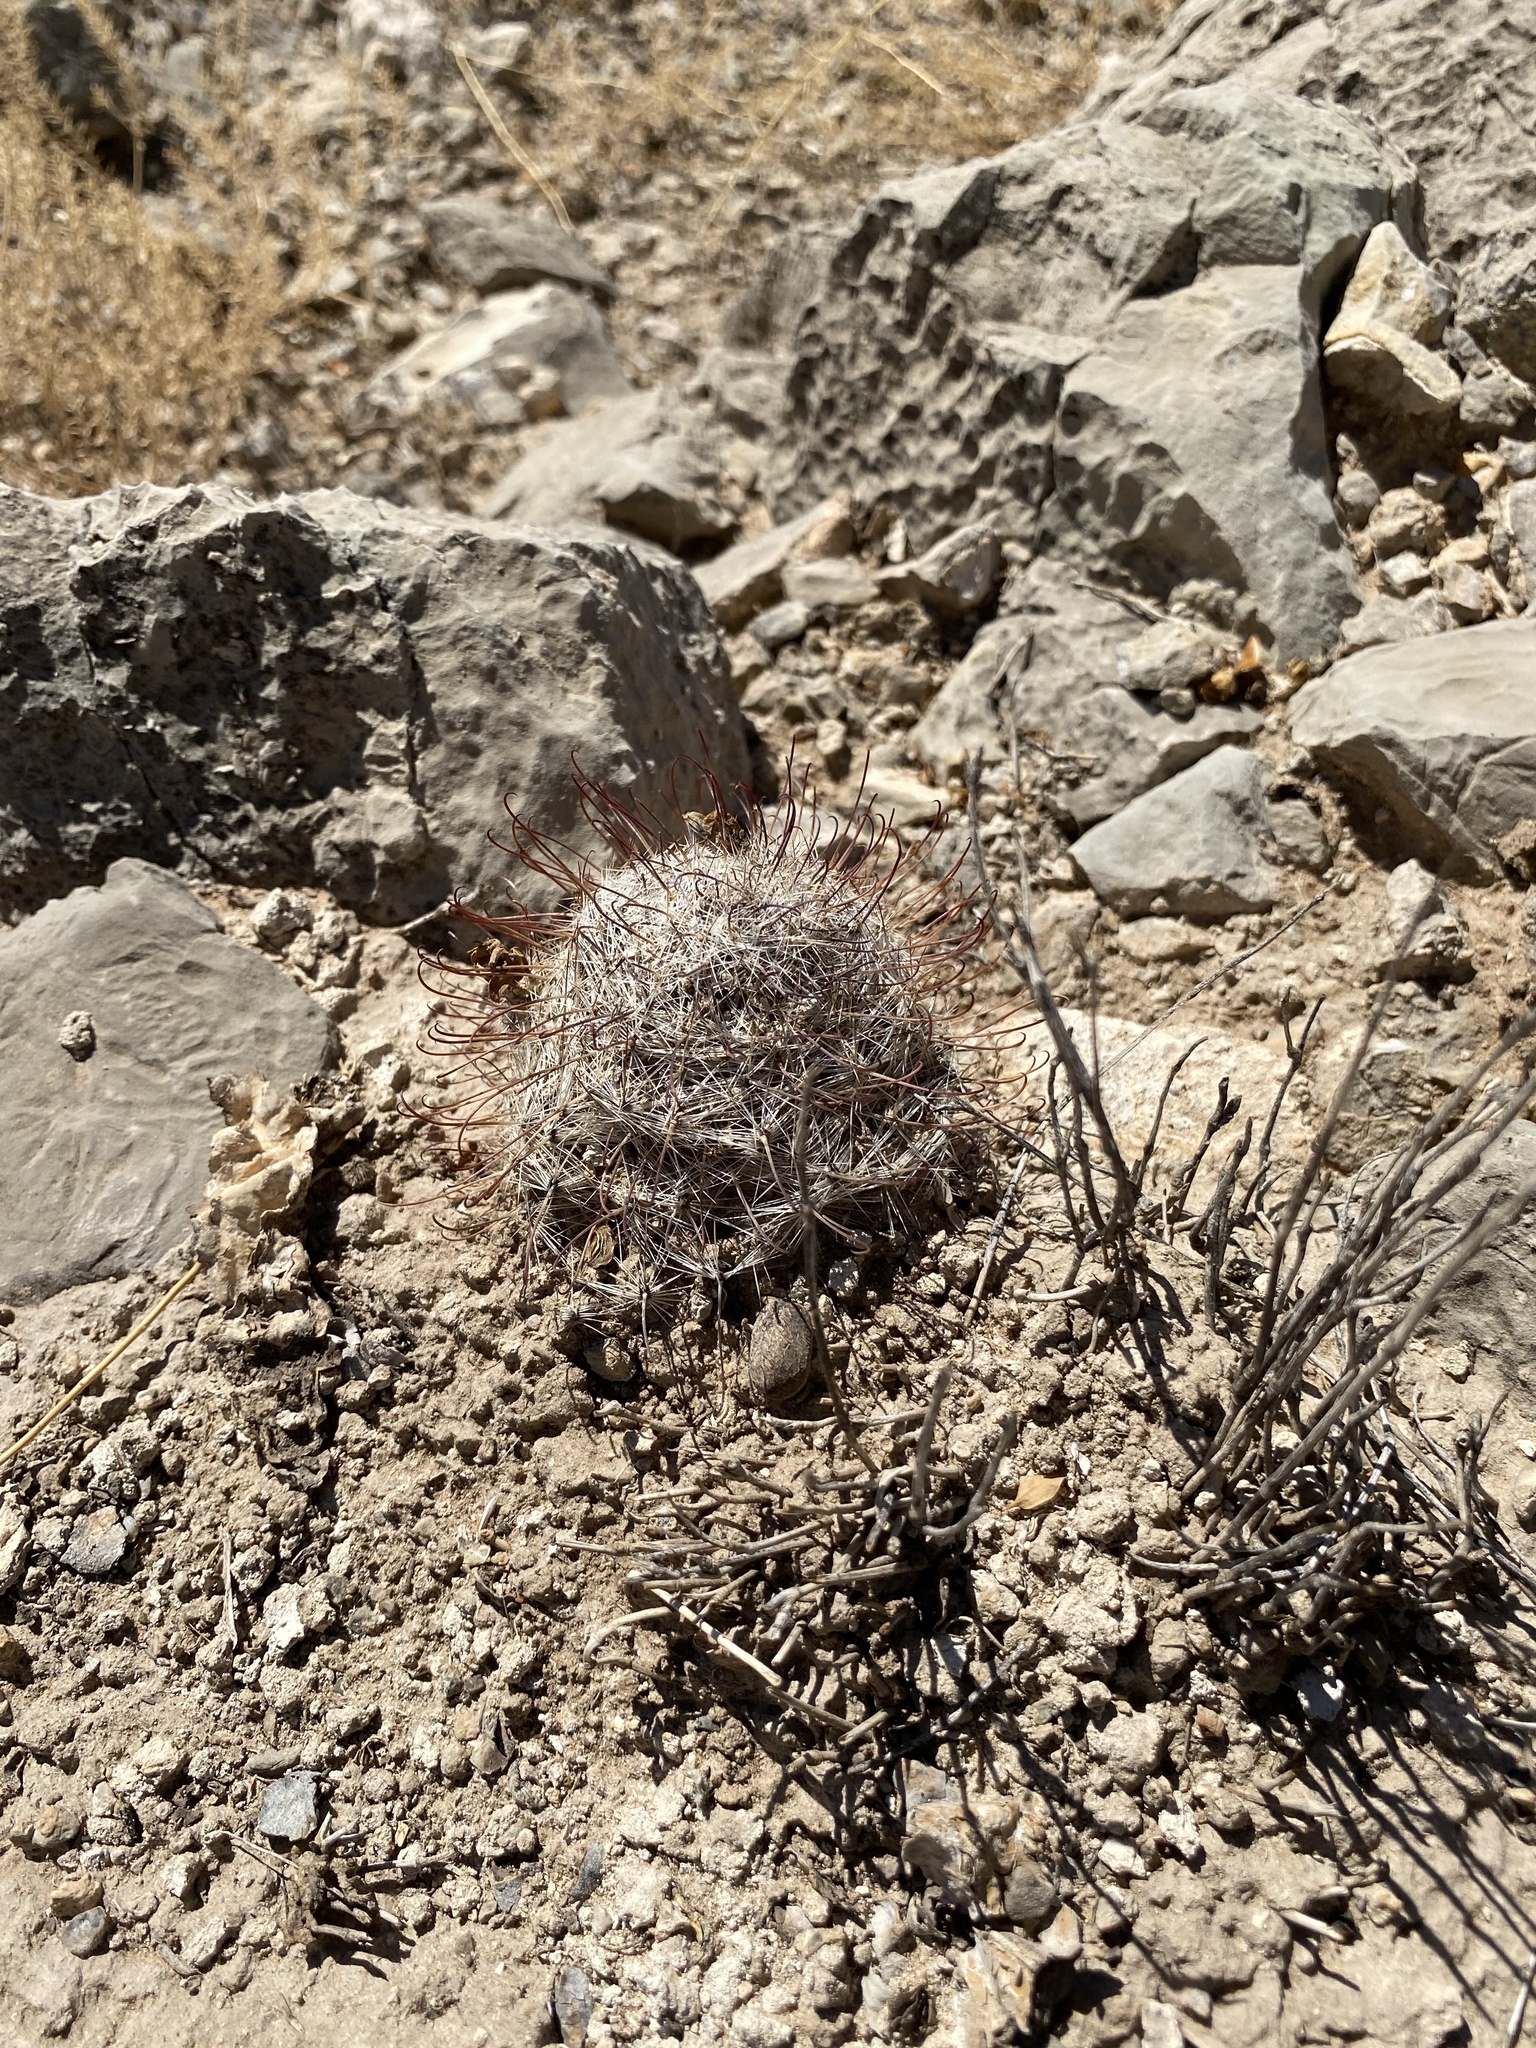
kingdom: Plantae
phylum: Tracheophyta
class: Magnoliopsida
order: Caryophyllales
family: Cactaceae
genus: Cochemiea
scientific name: Cochemiea grahamii
